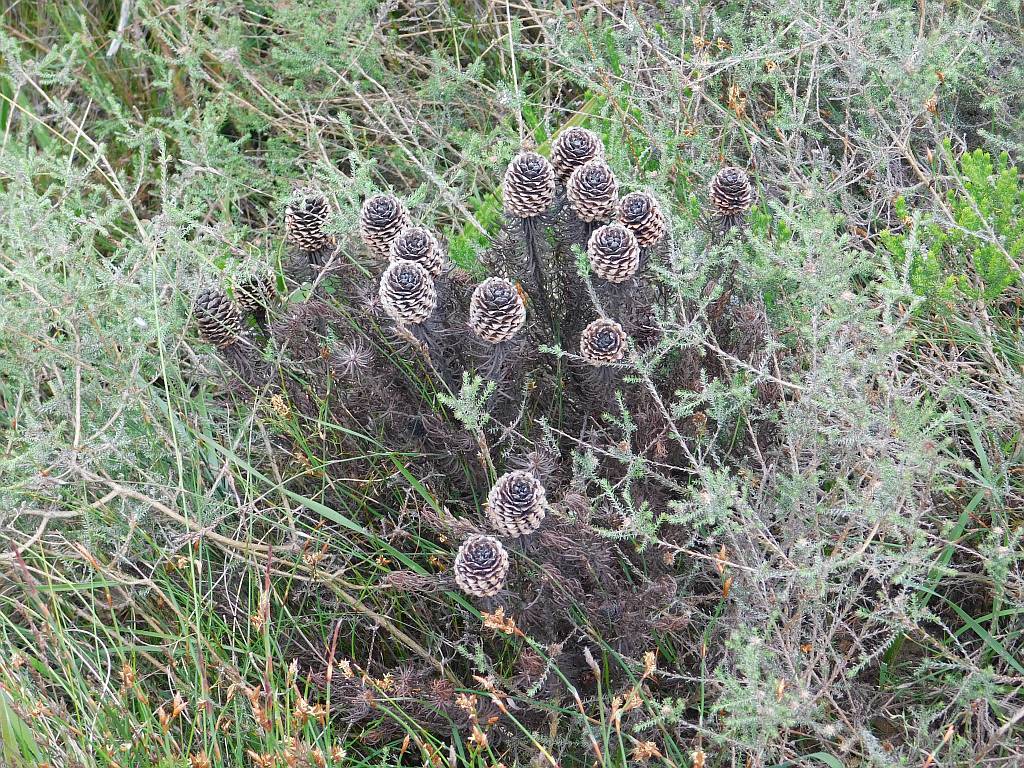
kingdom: Plantae
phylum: Tracheophyta
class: Magnoliopsida
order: Proteales
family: Proteaceae
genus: Leucadendron
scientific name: Leucadendron teretifolium
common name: Needle-leaf conebush
